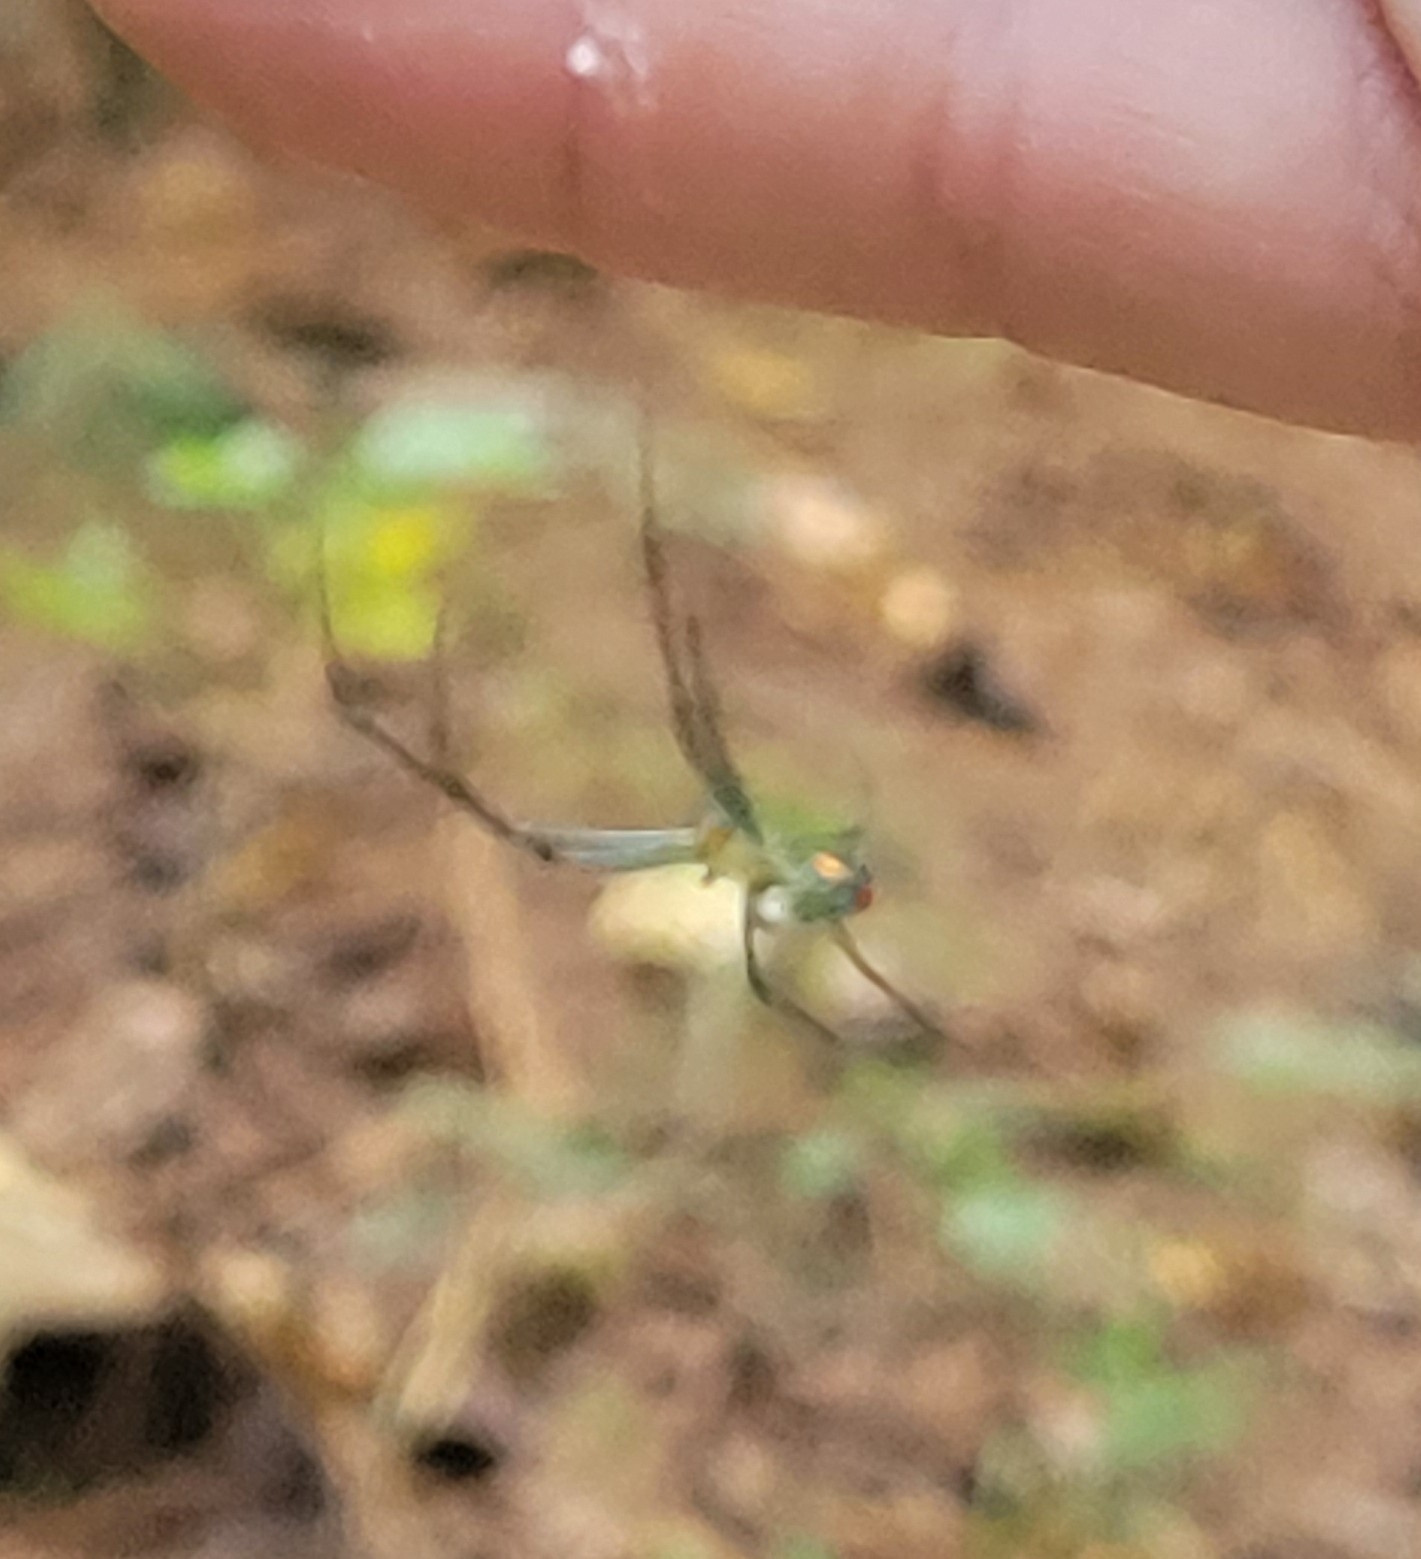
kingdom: Animalia
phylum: Arthropoda
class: Arachnida
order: Araneae
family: Tetragnathidae
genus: Leucauge
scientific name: Leucauge argyrobapta
